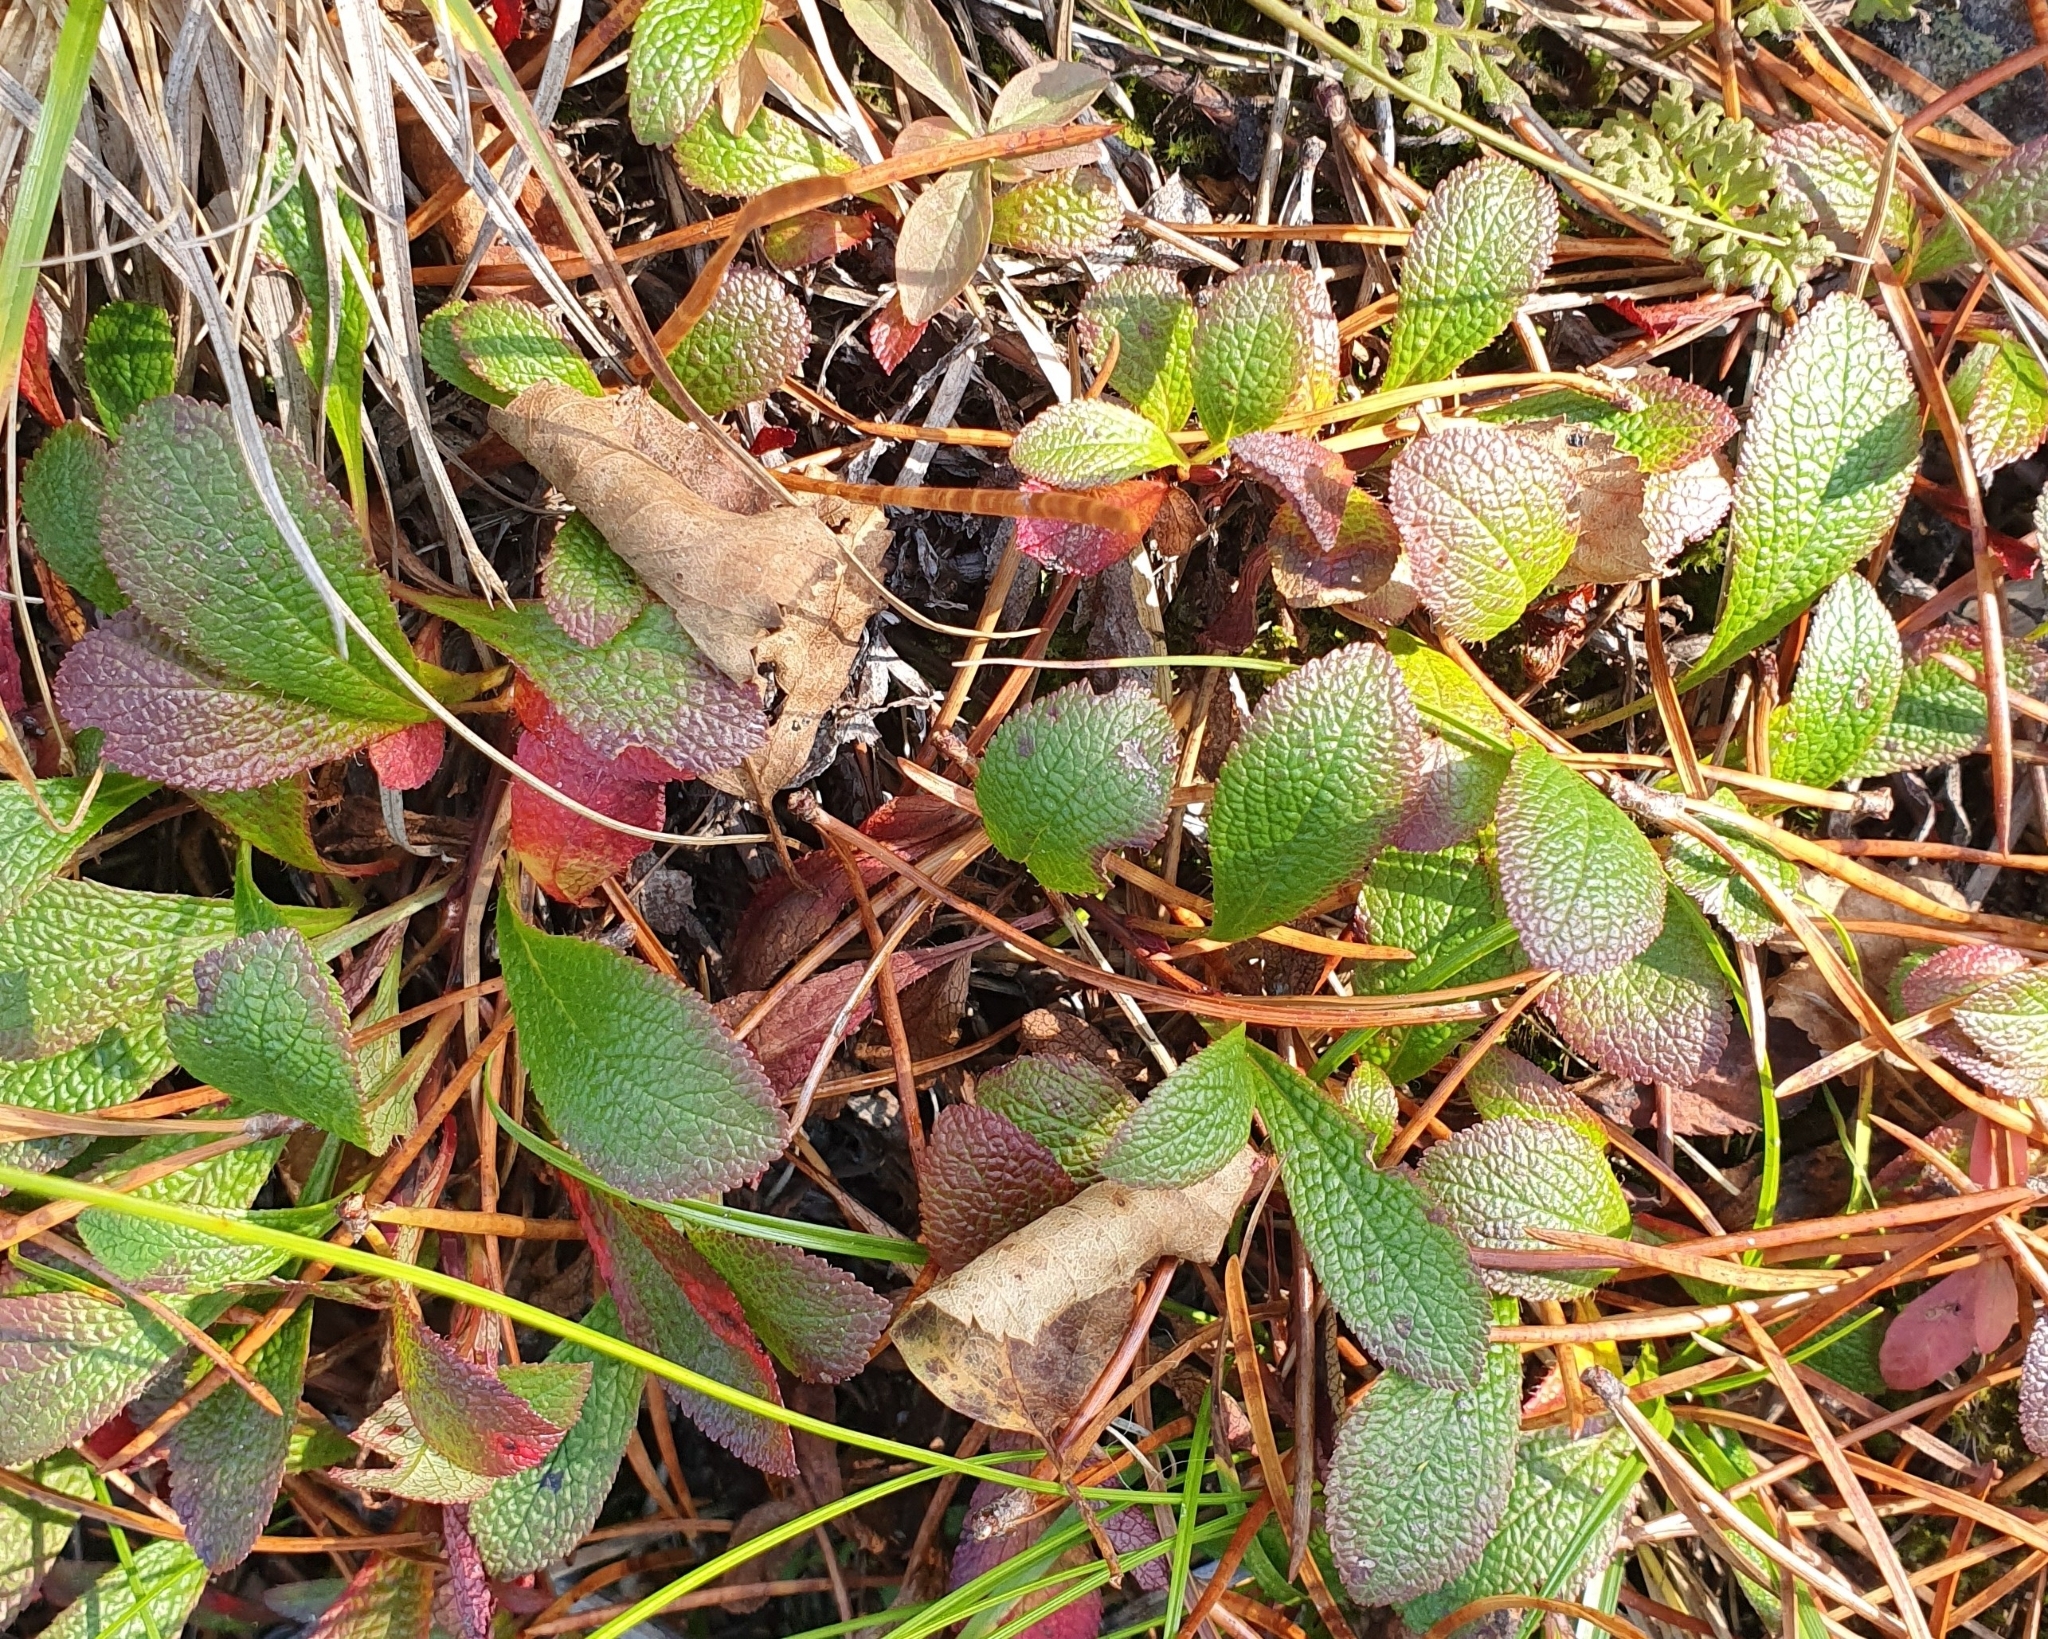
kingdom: Plantae
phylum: Tracheophyta
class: Magnoliopsida
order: Ericales
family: Ericaceae
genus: Arctostaphylos
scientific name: Arctostaphylos alpinus
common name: Alpine bearberry
